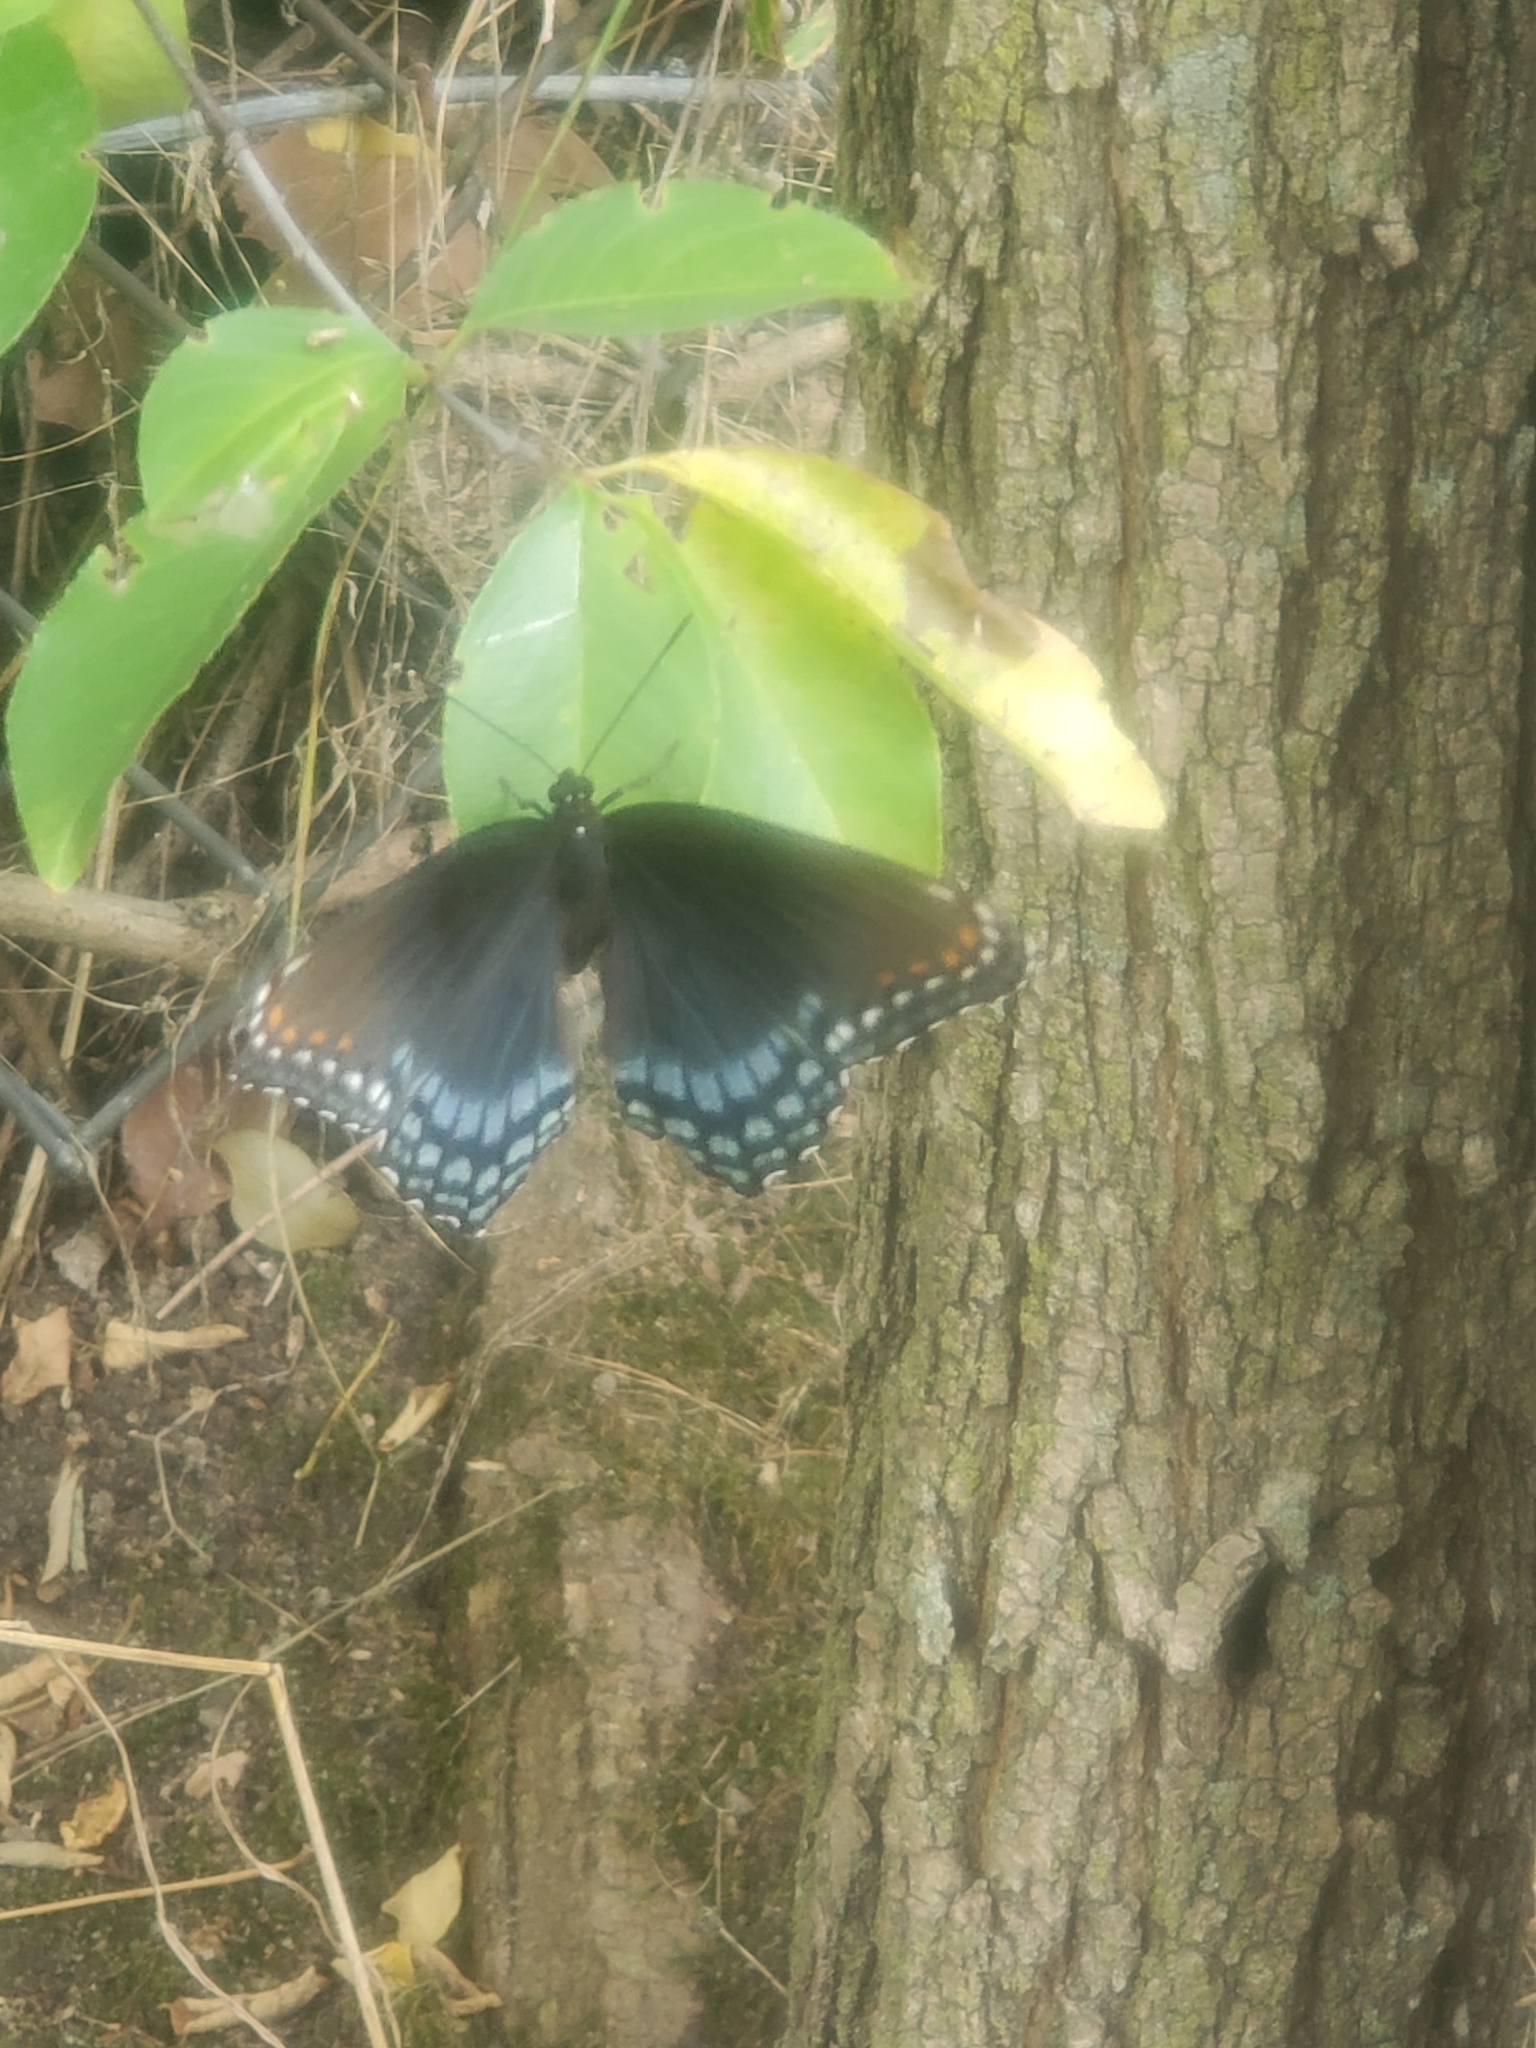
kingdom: Animalia
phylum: Arthropoda
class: Insecta
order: Lepidoptera
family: Nymphalidae
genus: Limenitis
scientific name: Limenitis arthemis
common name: Red-spotted admiral
